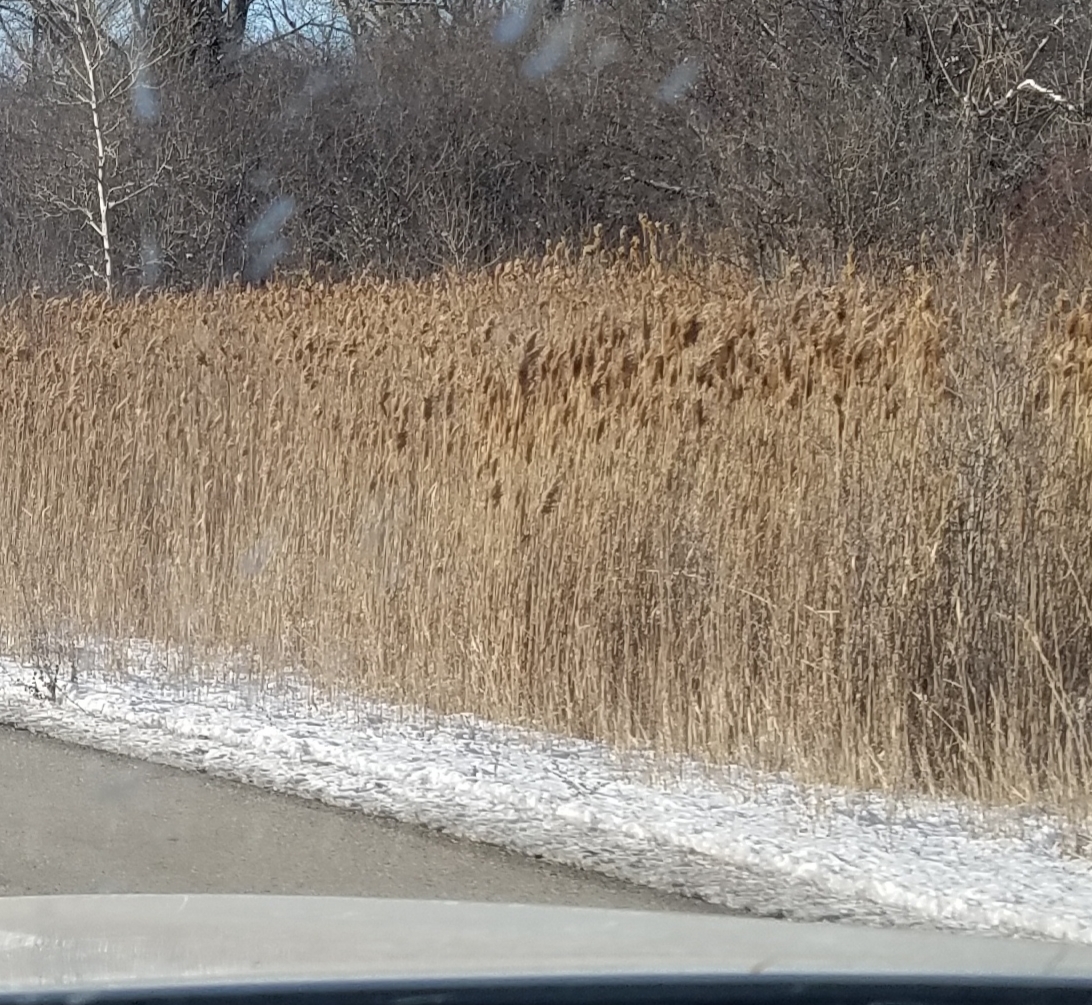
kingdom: Plantae
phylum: Tracheophyta
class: Liliopsida
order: Poales
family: Poaceae
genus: Phragmites
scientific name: Phragmites australis
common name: Common reed
